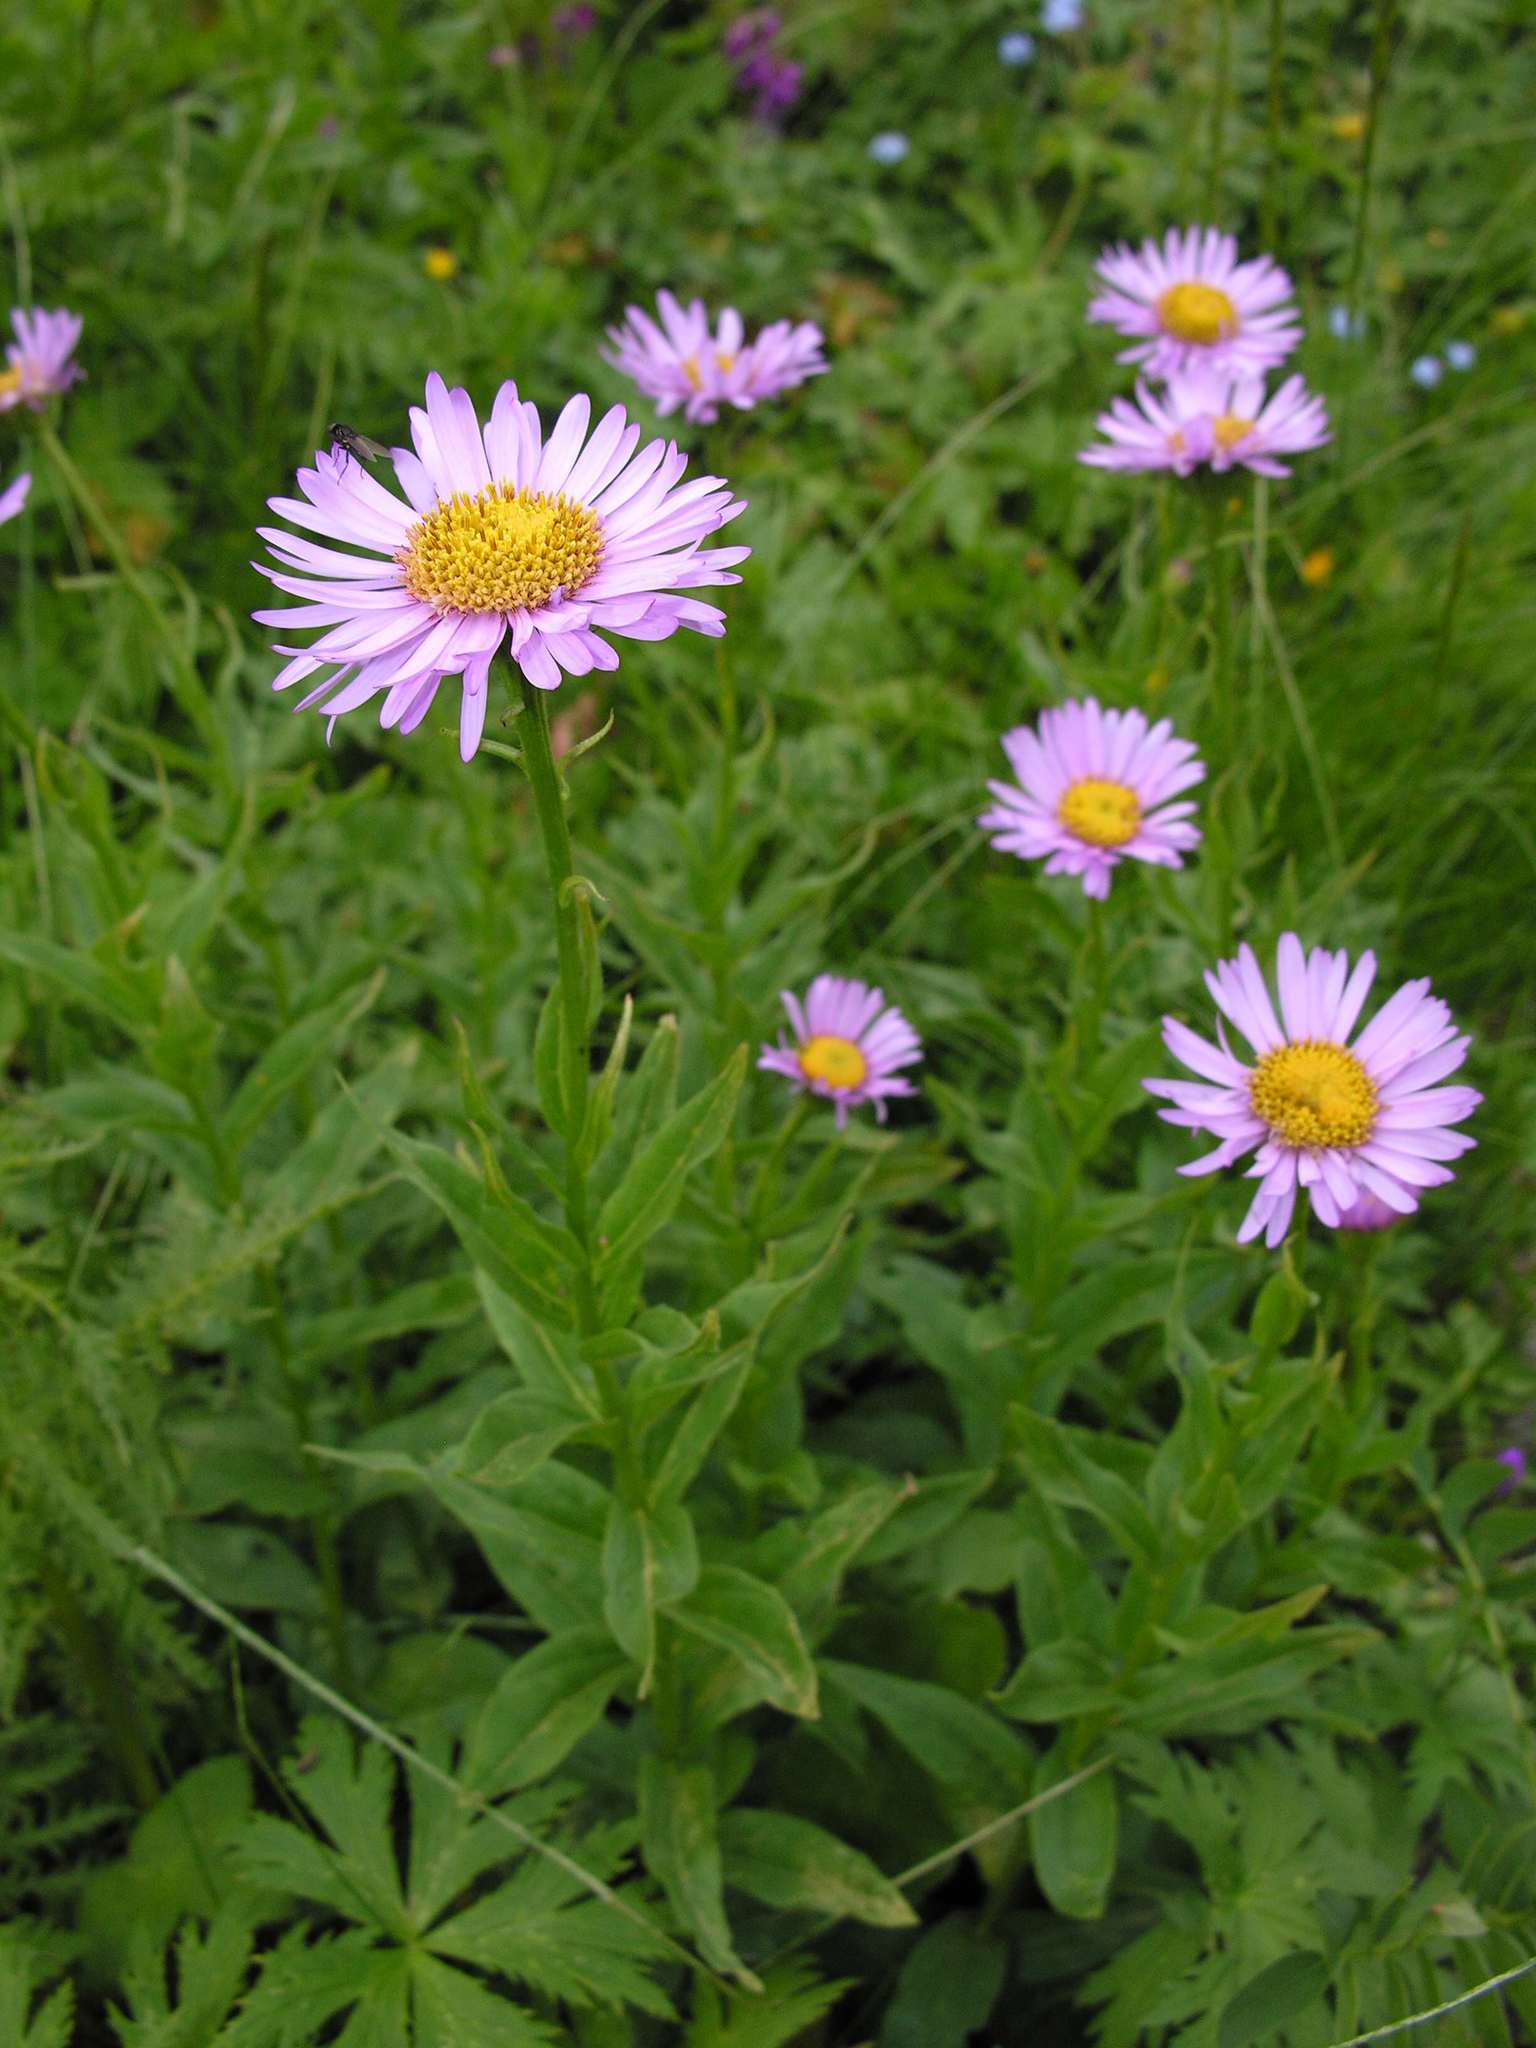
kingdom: Plantae
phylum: Tracheophyta
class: Magnoliopsida
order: Asterales
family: Asteraceae
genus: Kemulariella
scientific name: Kemulariella caucasica
